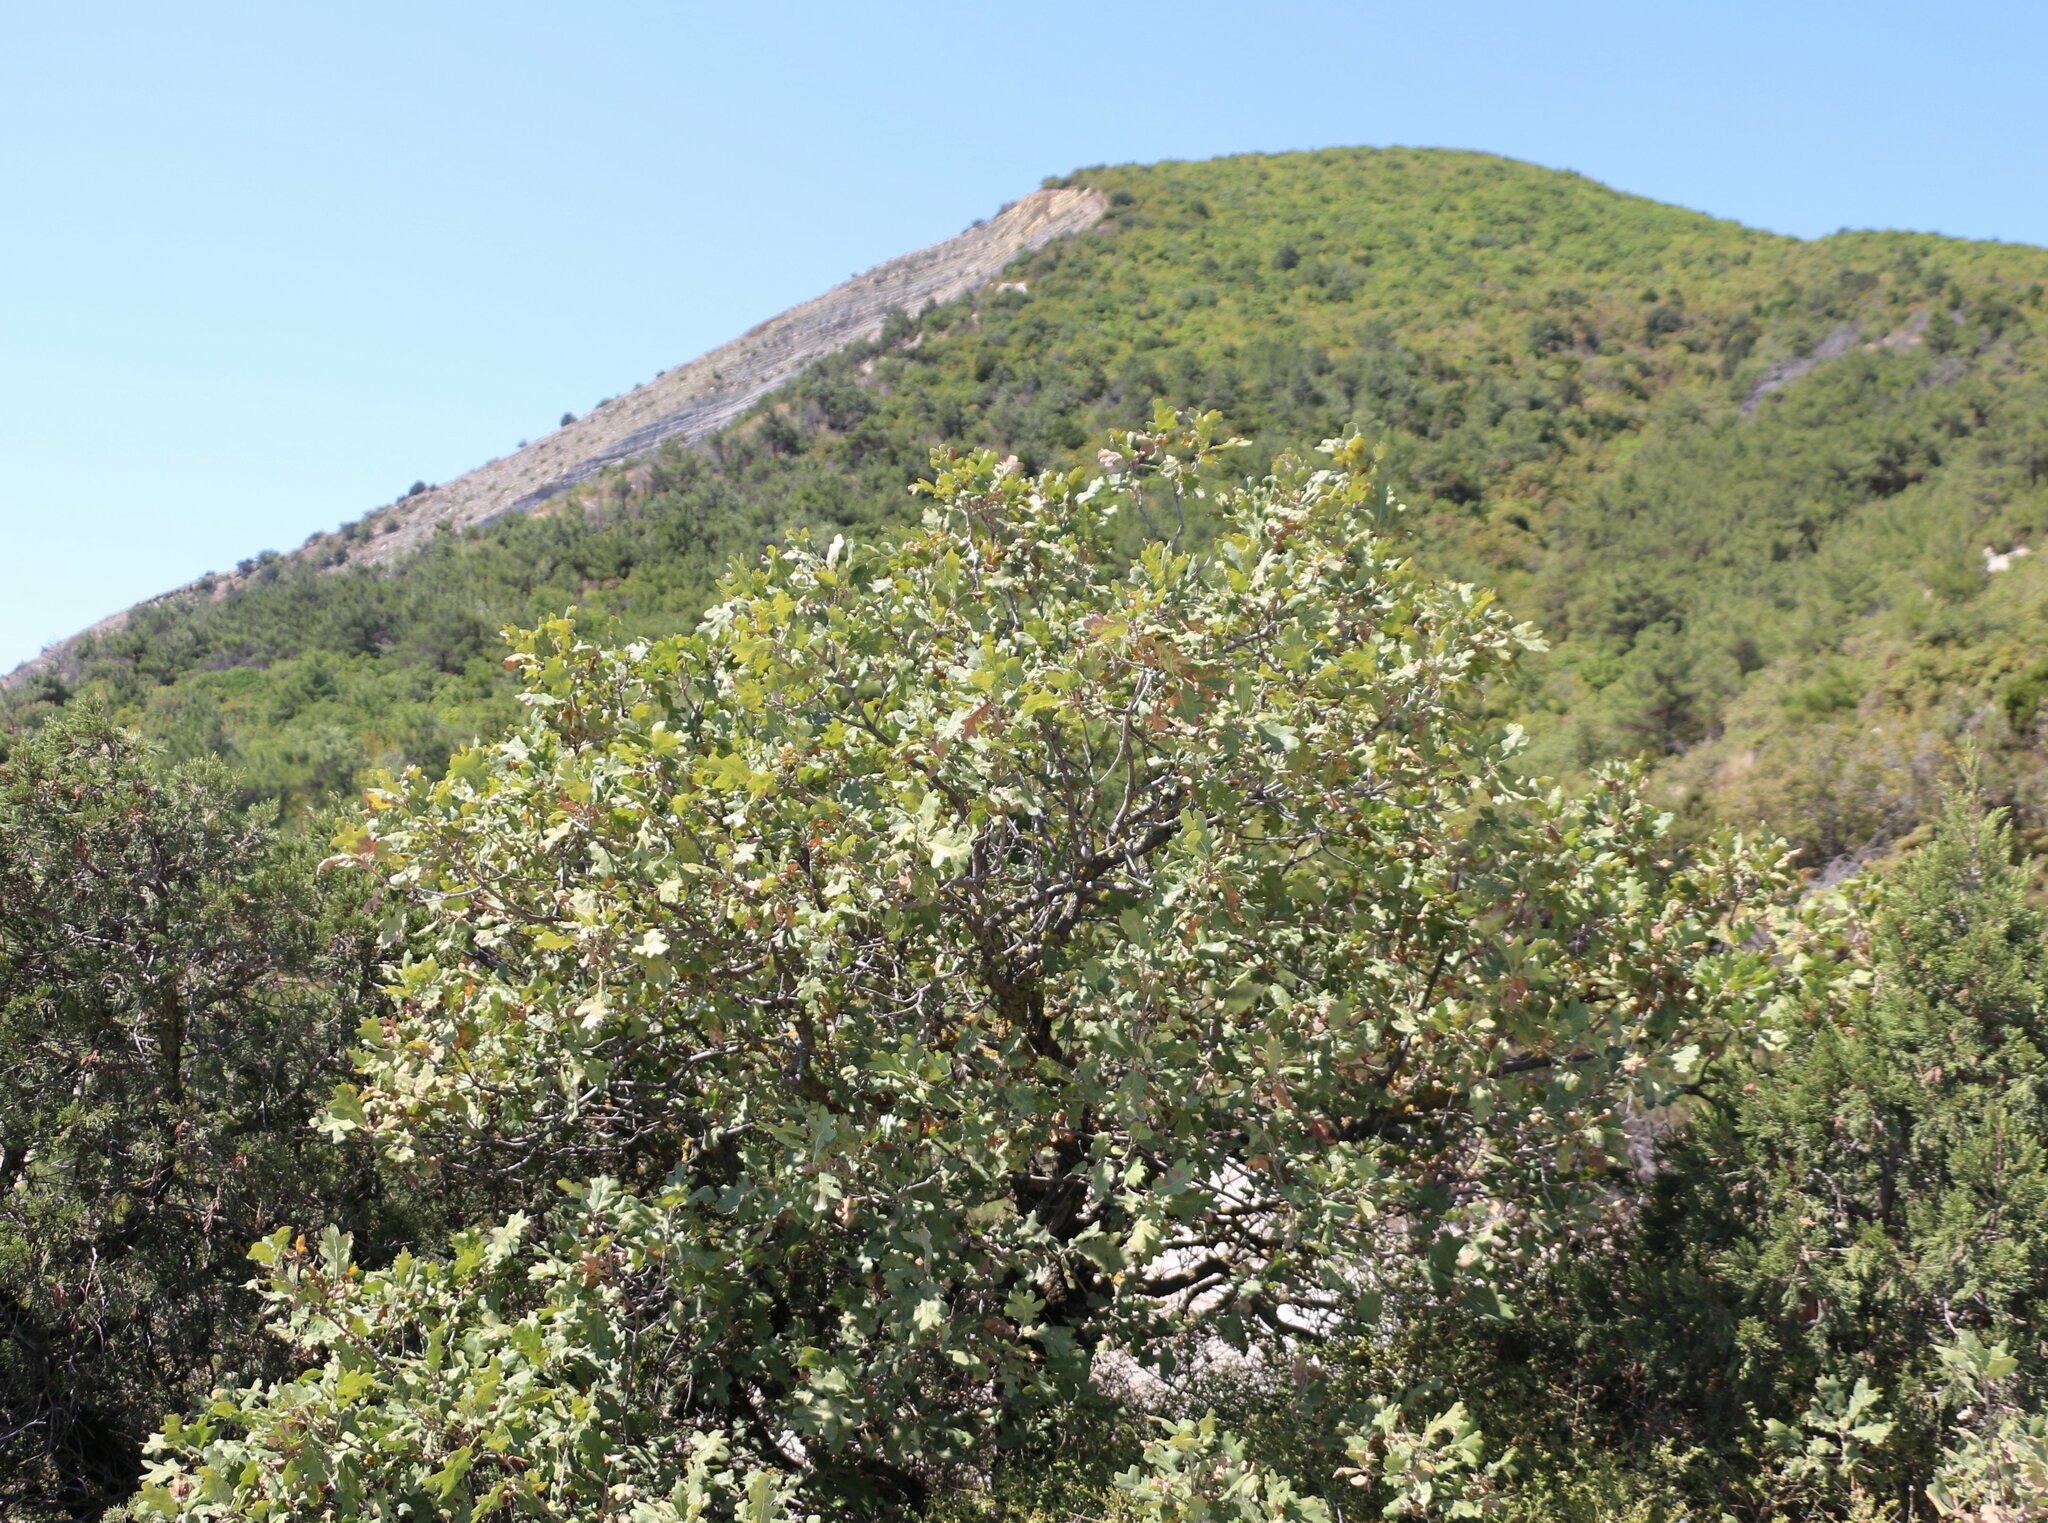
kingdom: Plantae
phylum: Tracheophyta
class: Magnoliopsida
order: Fagales
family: Fagaceae
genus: Quercus
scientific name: Quercus pubescens
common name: Downy oak
